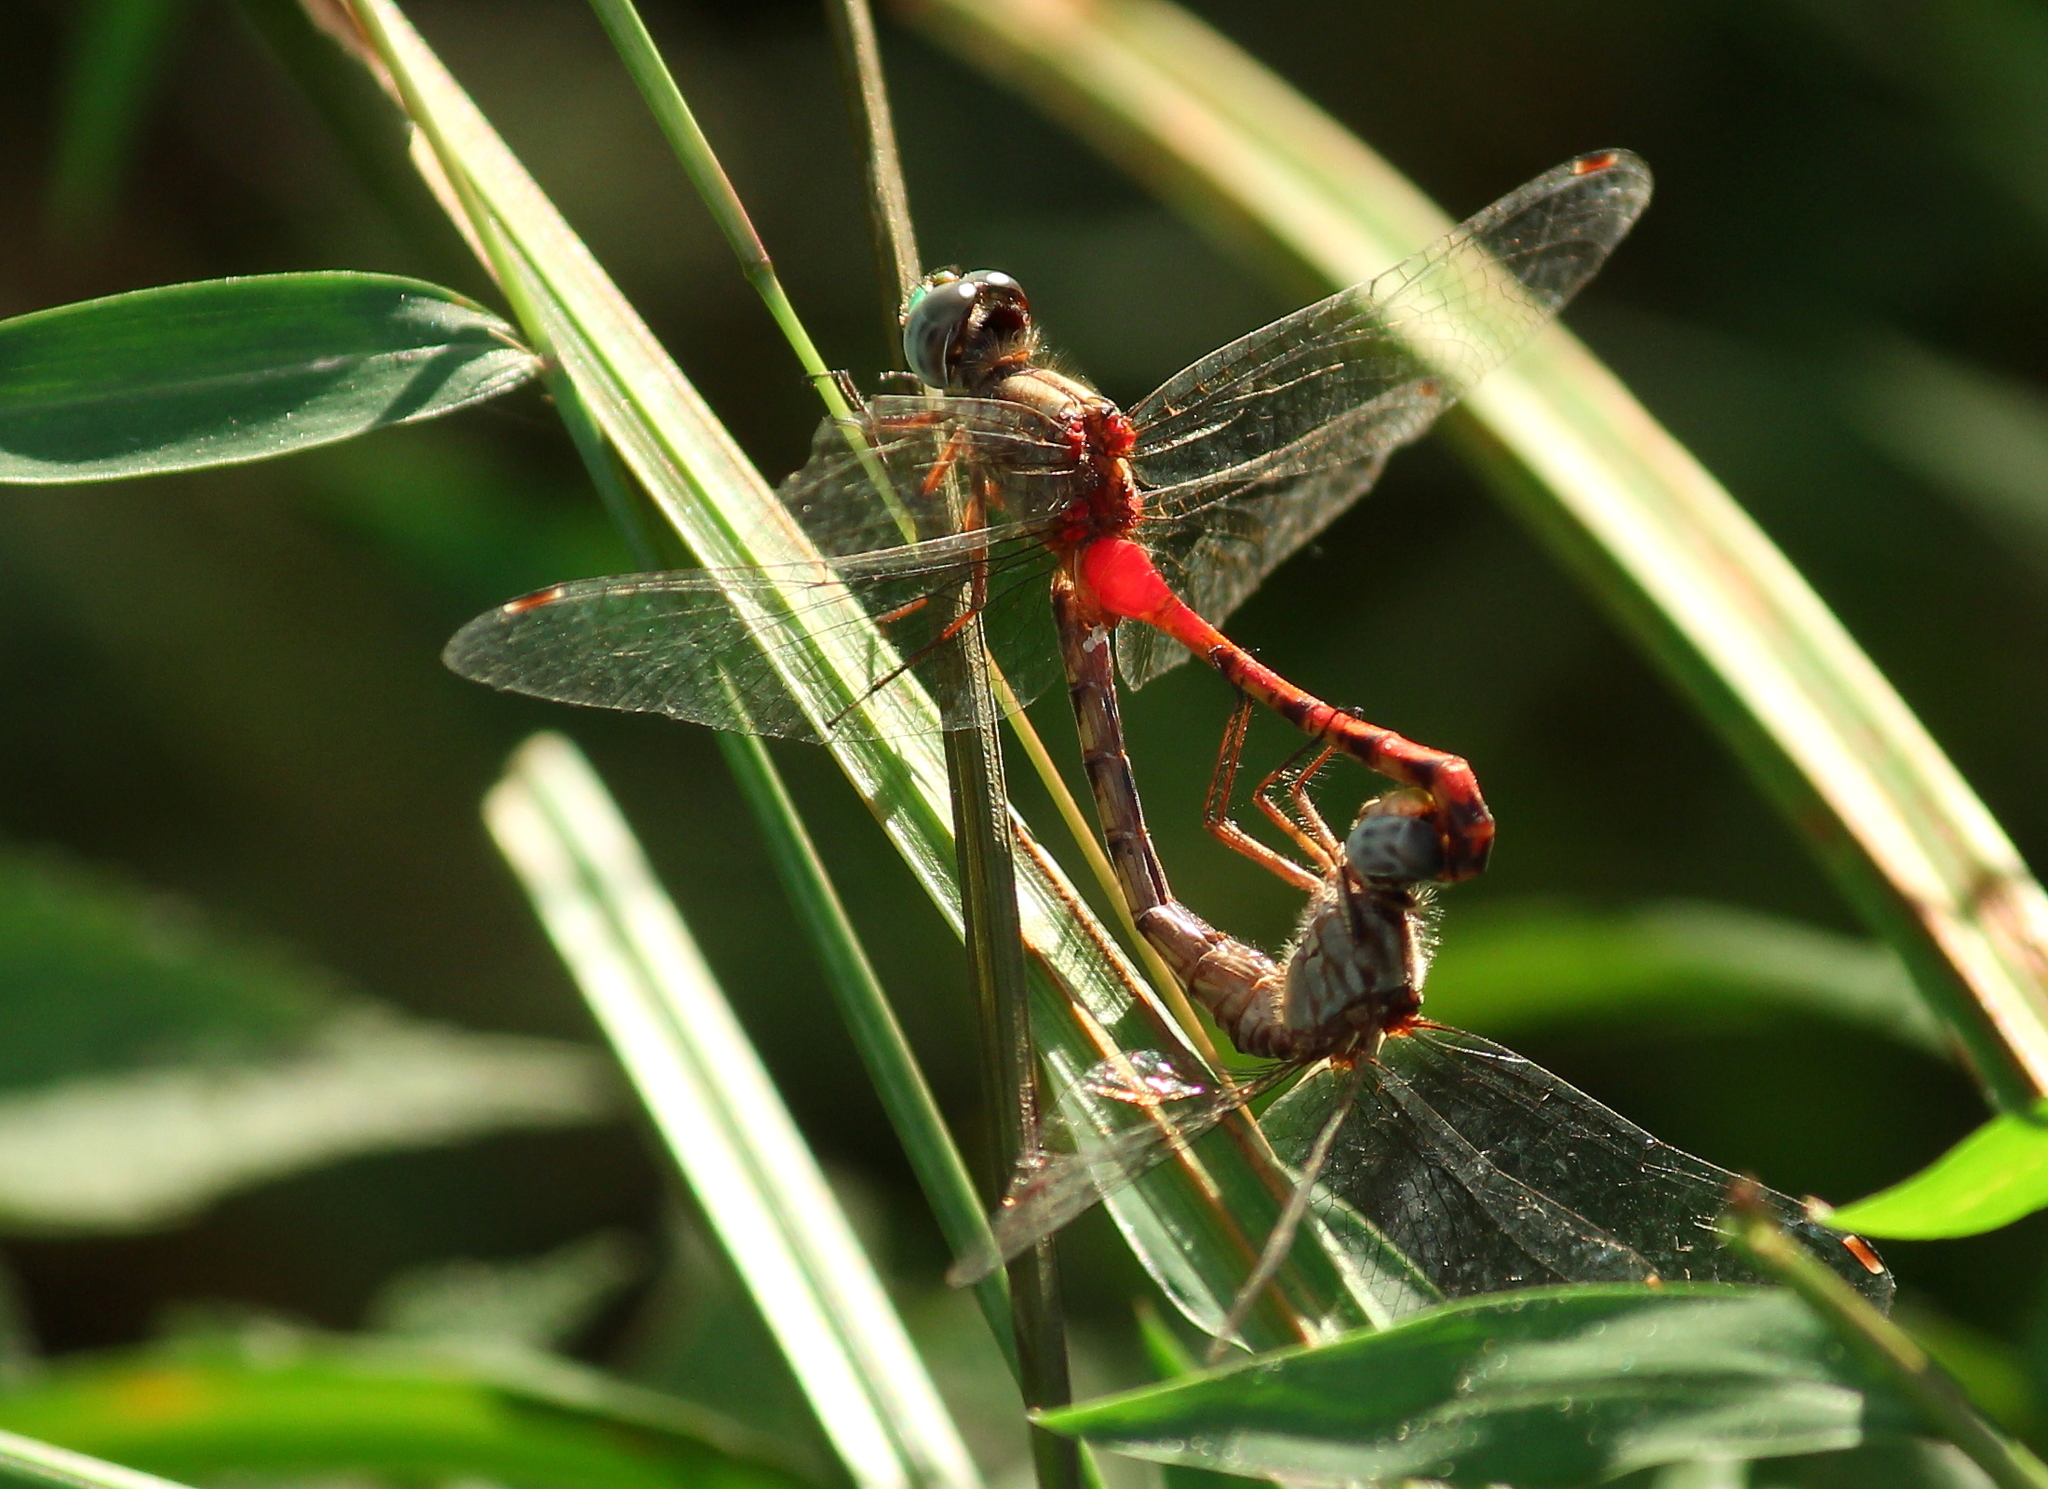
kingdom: Animalia
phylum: Arthropoda
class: Insecta
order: Odonata
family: Libellulidae
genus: Sympetrum
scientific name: Sympetrum ambiguum
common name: Blue-faced meadowhawk
